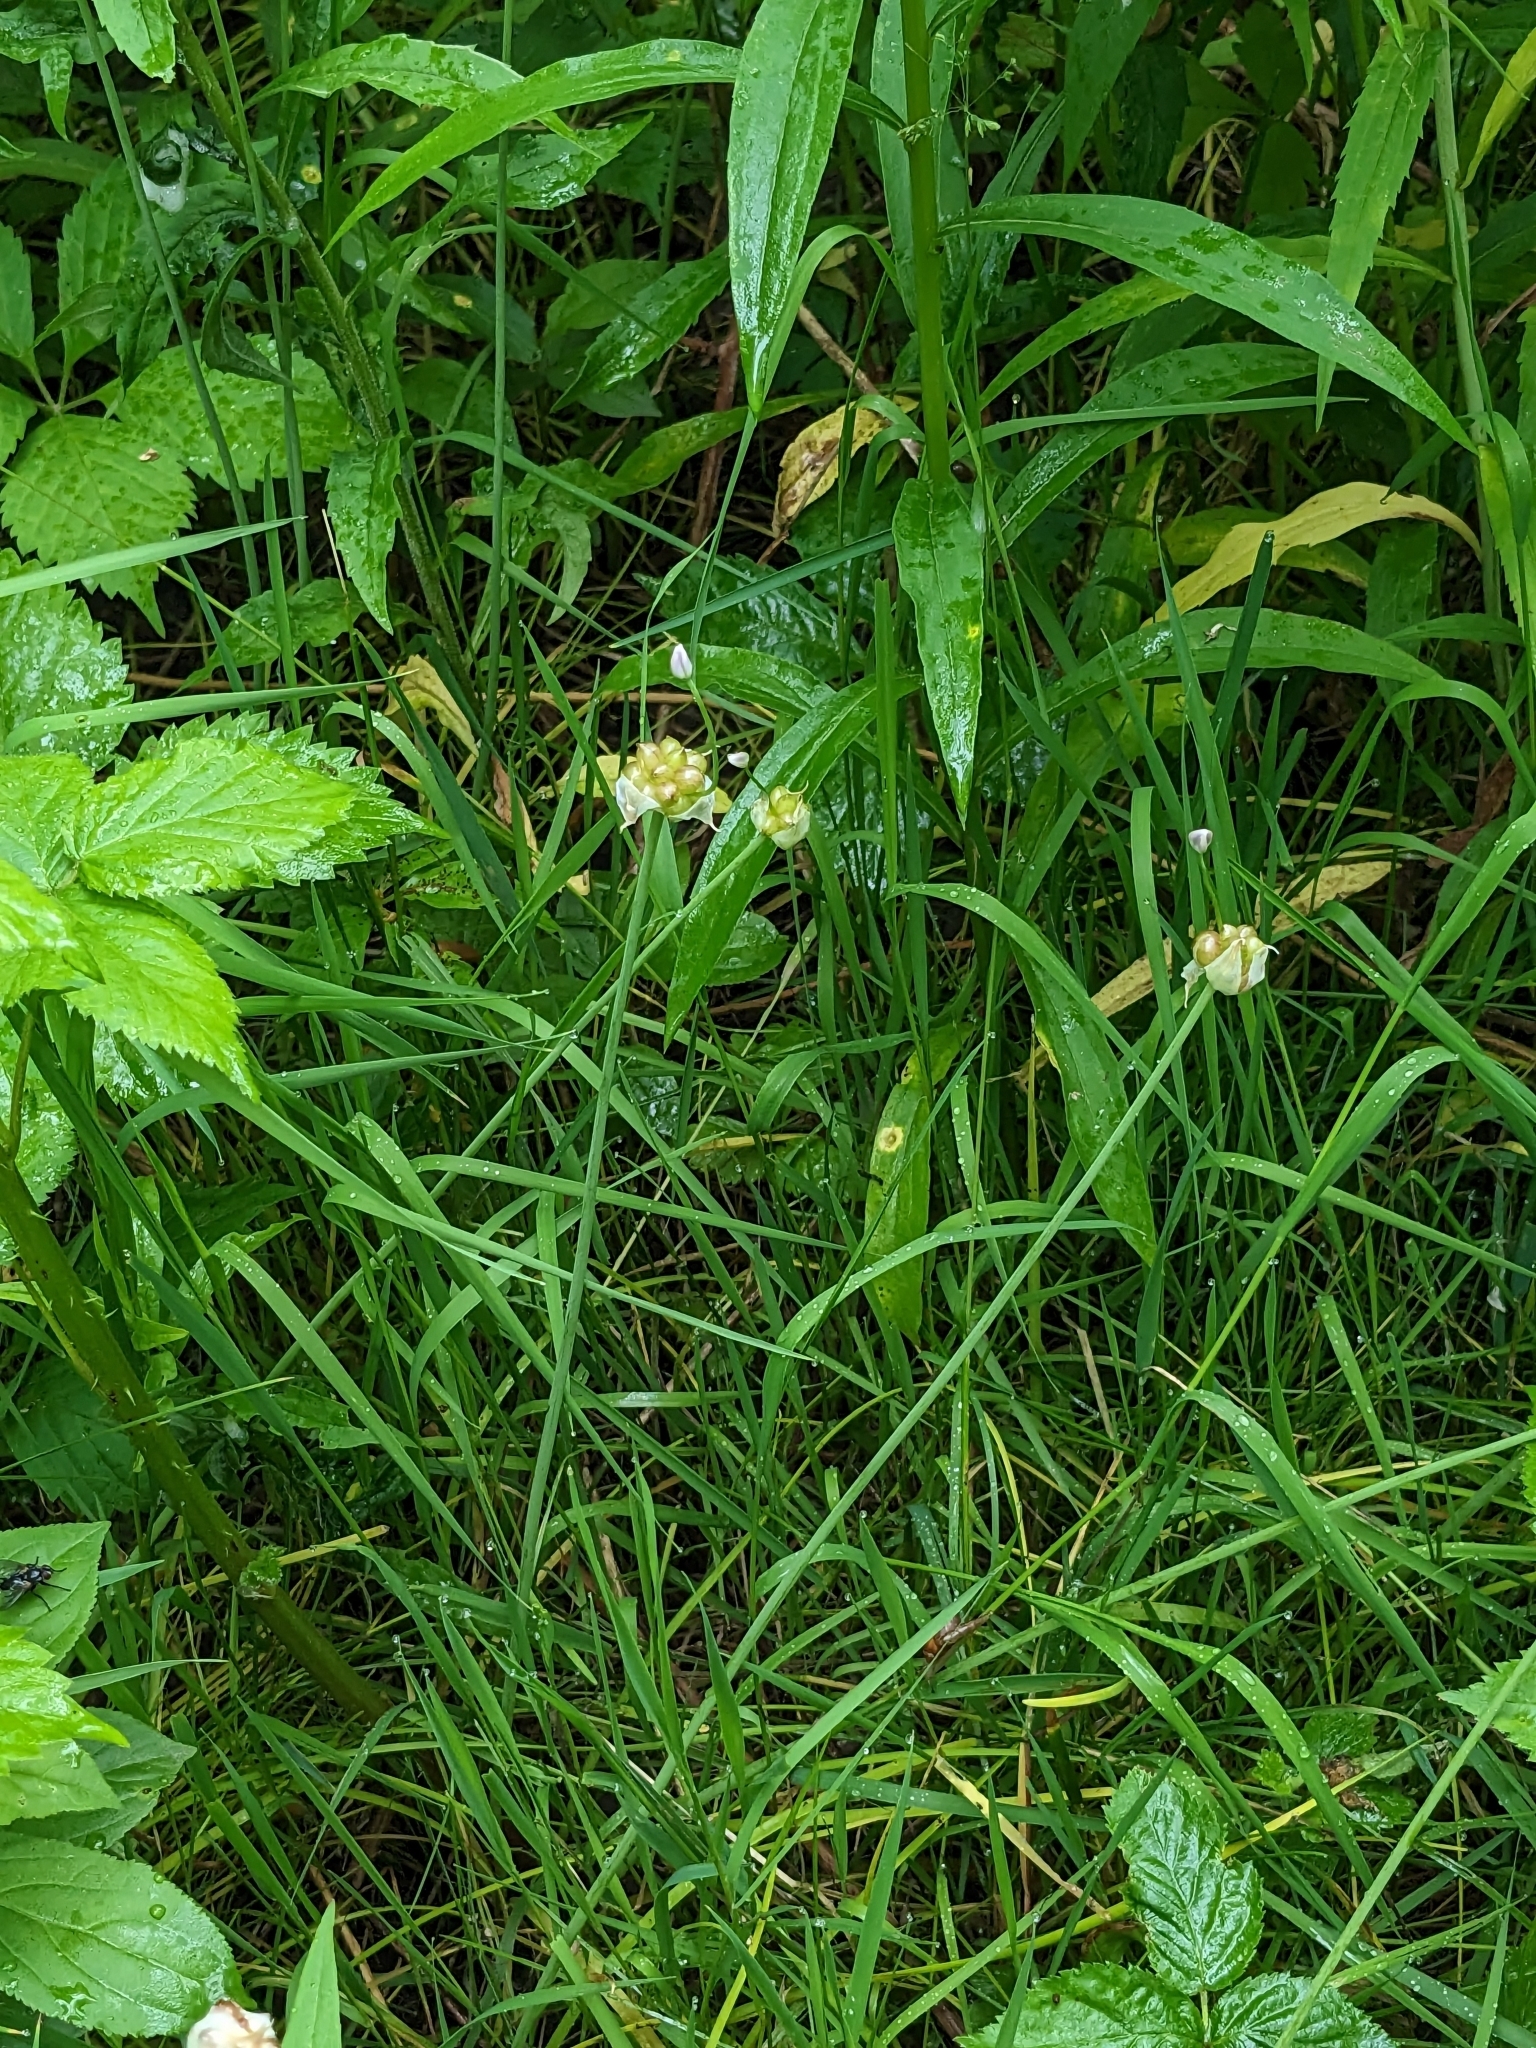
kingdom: Plantae
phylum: Tracheophyta
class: Liliopsida
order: Asparagales
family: Amaryllidaceae
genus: Allium
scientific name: Allium canadense
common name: Meadow garlic
